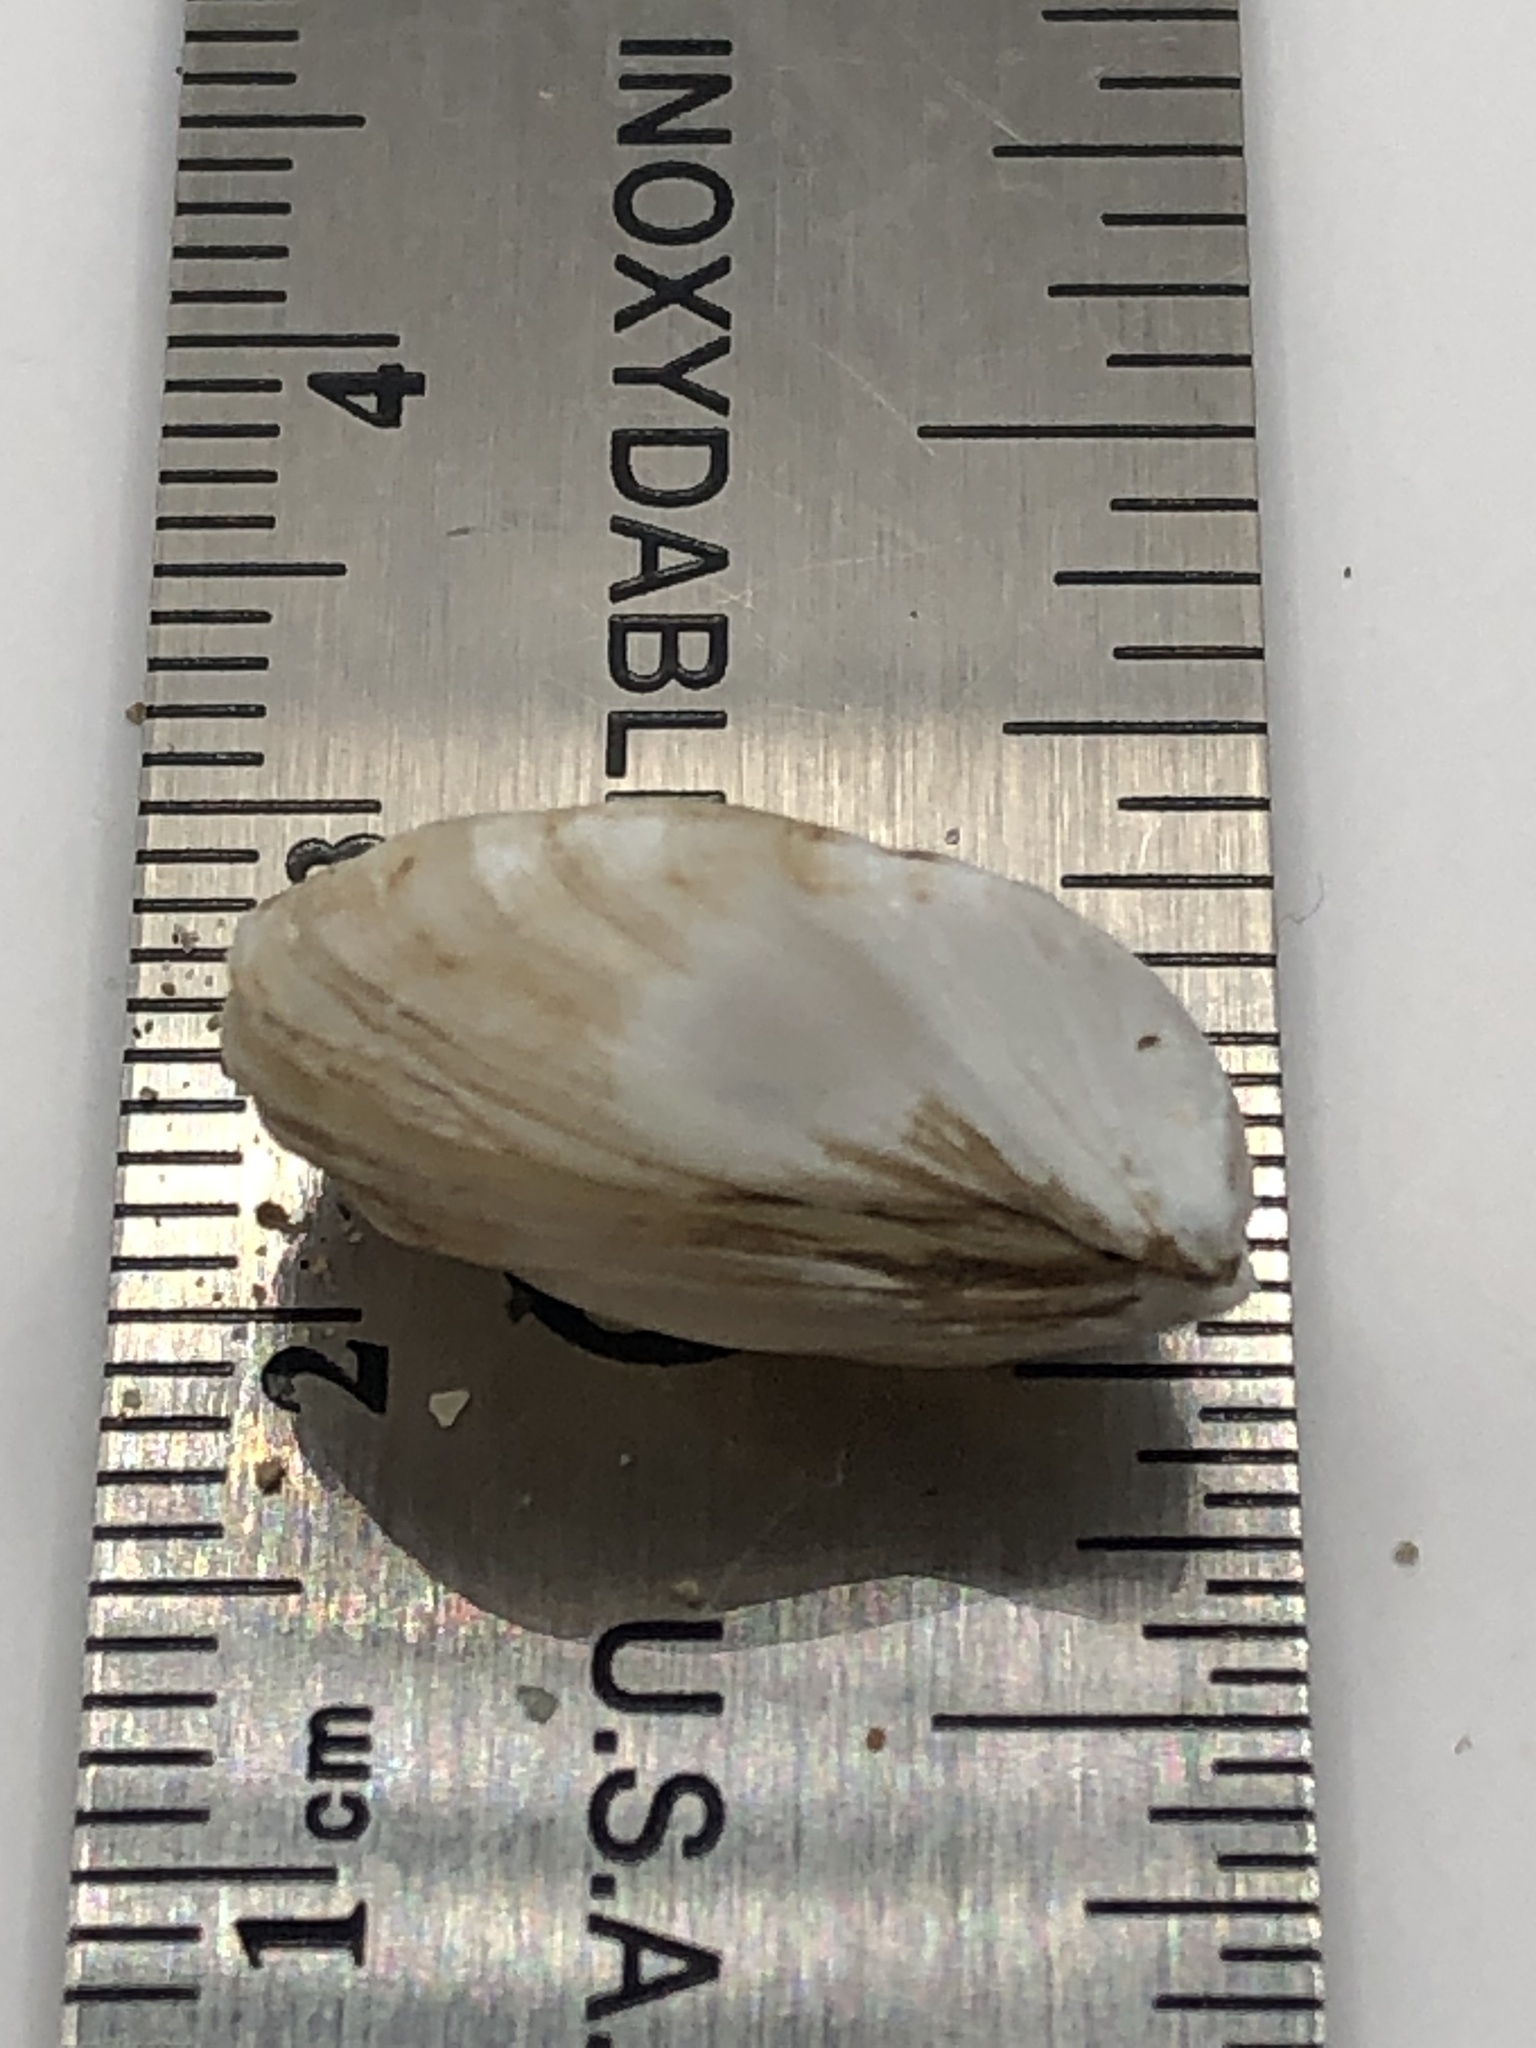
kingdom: Animalia
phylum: Mollusca
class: Bivalvia
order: Myida
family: Dreissenidae
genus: Dreissena
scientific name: Dreissena bugensis
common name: Quagga mussel
